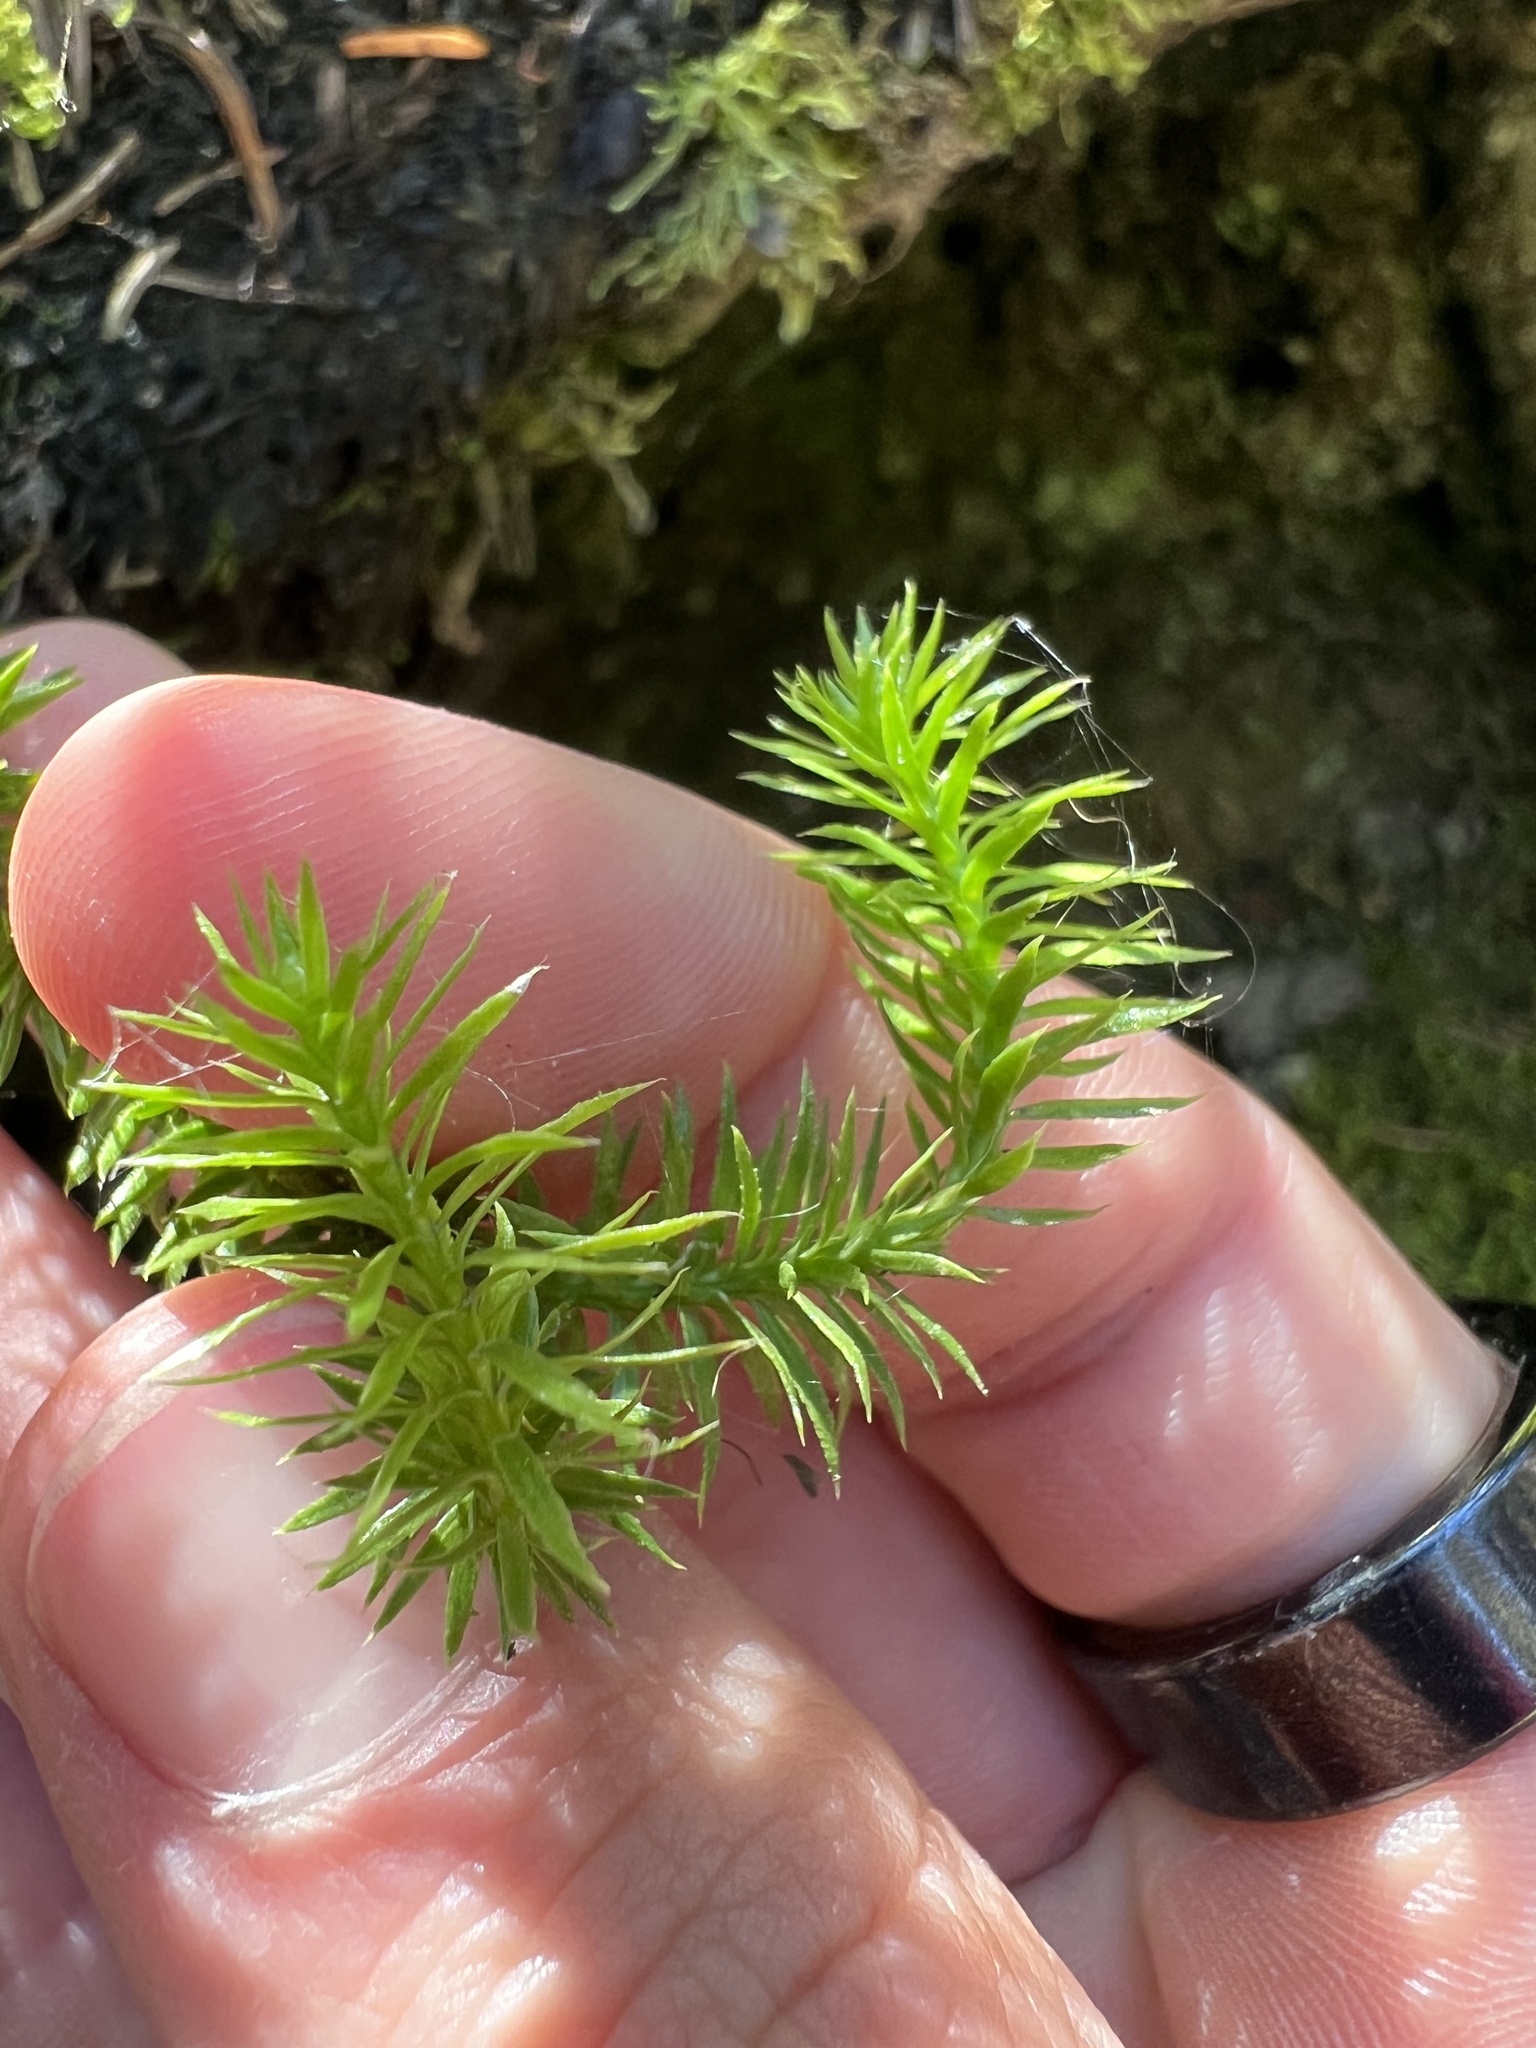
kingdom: Plantae
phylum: Tracheophyta
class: Lycopodiopsida
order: Lycopodiales
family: Lycopodiaceae
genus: Spinulum
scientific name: Spinulum annotinum
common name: Interrupted club-moss
